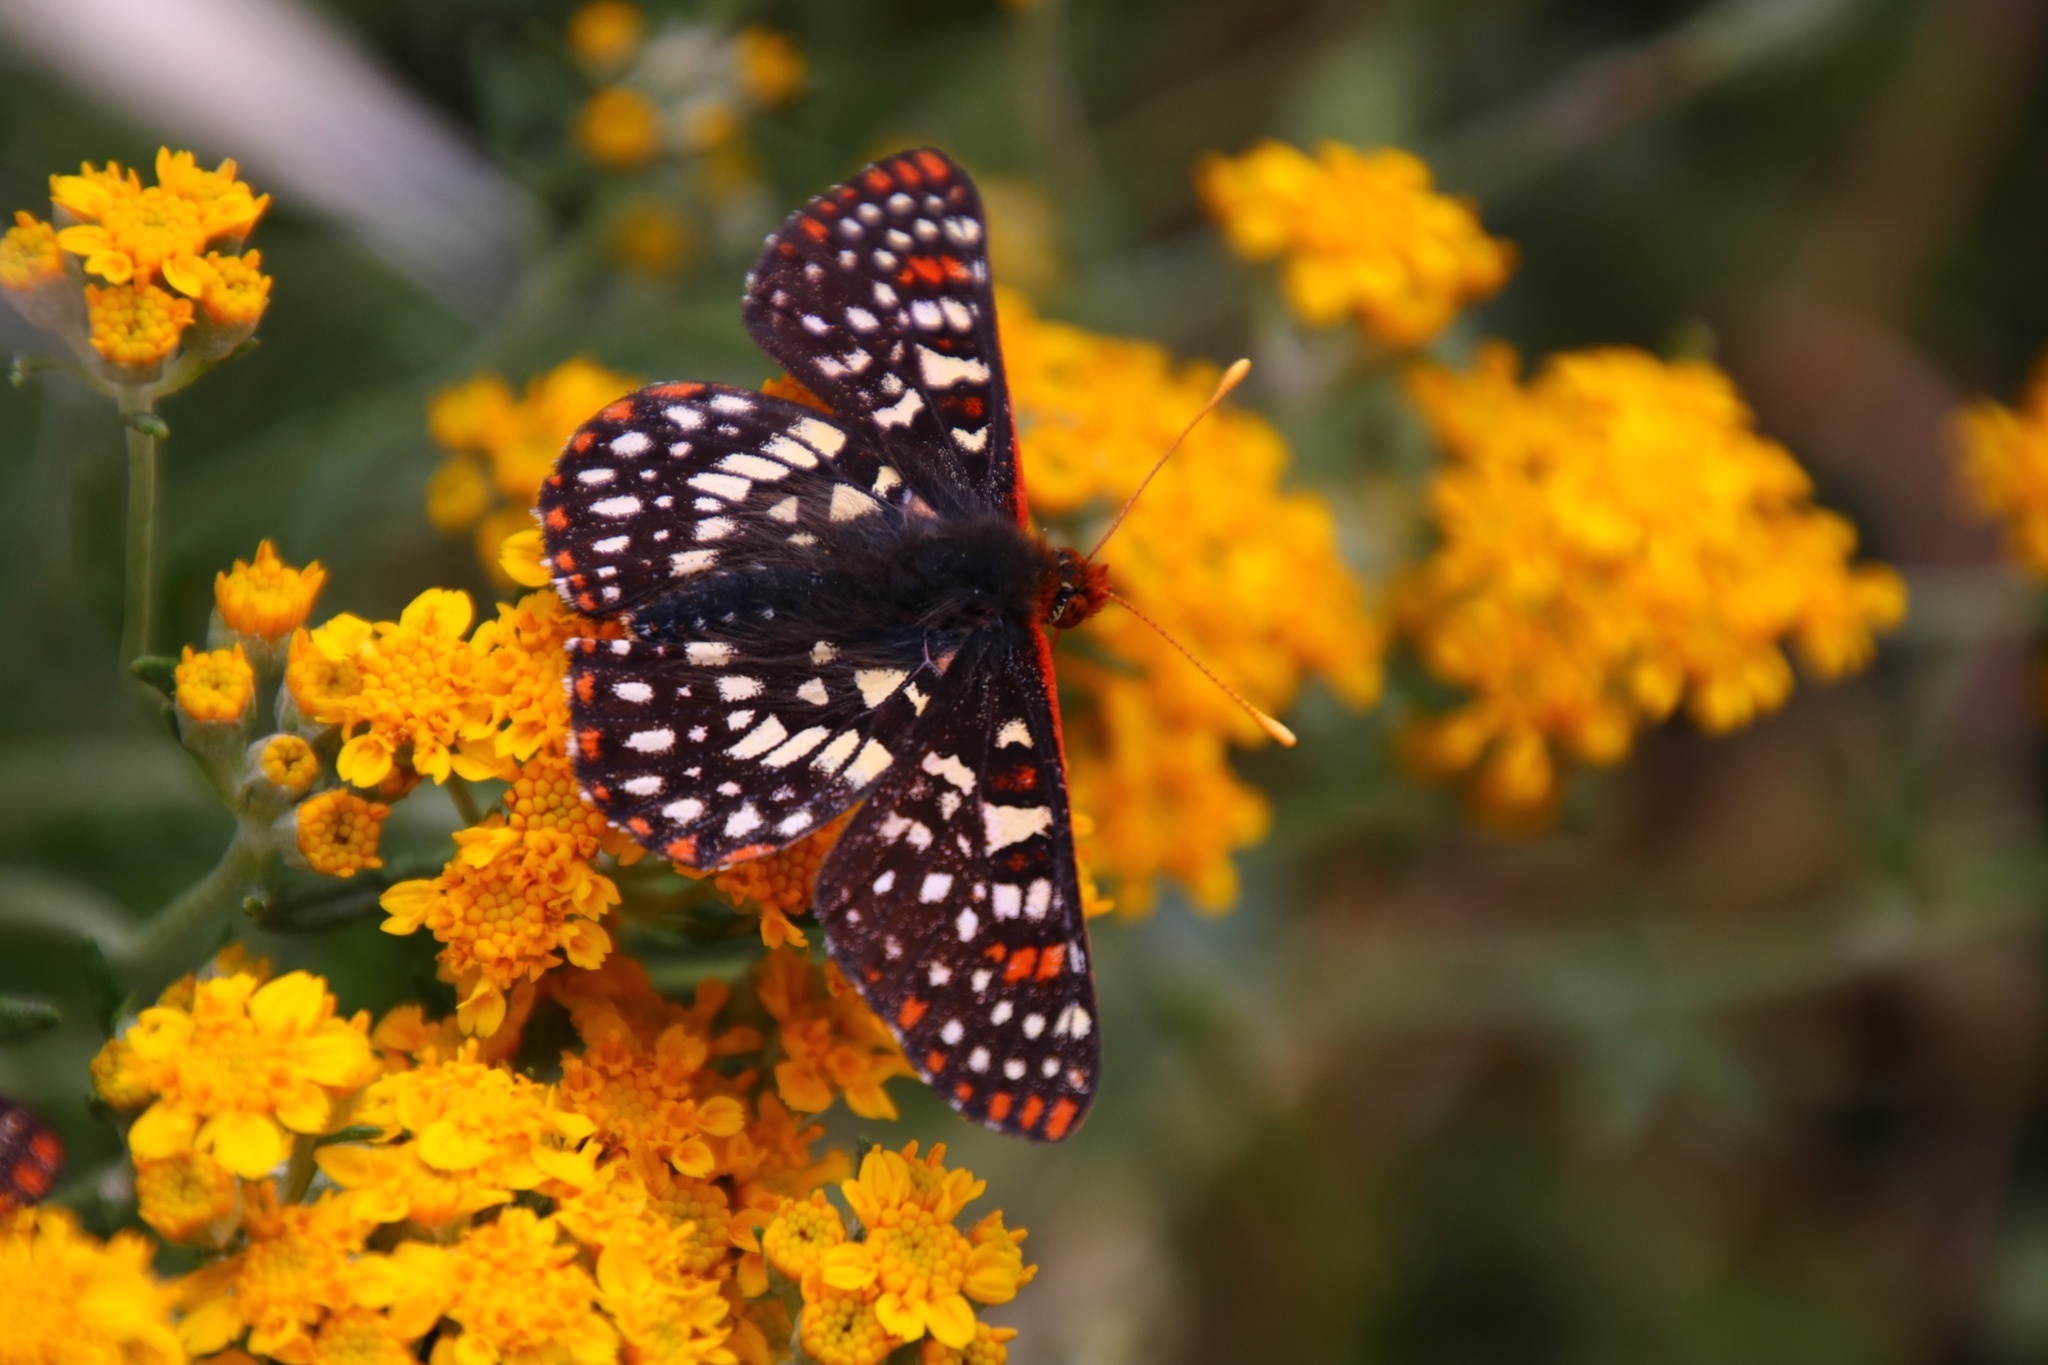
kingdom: Animalia
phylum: Arthropoda
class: Insecta
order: Lepidoptera
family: Nymphalidae
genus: Occidryas
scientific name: Occidryas chalcedona
